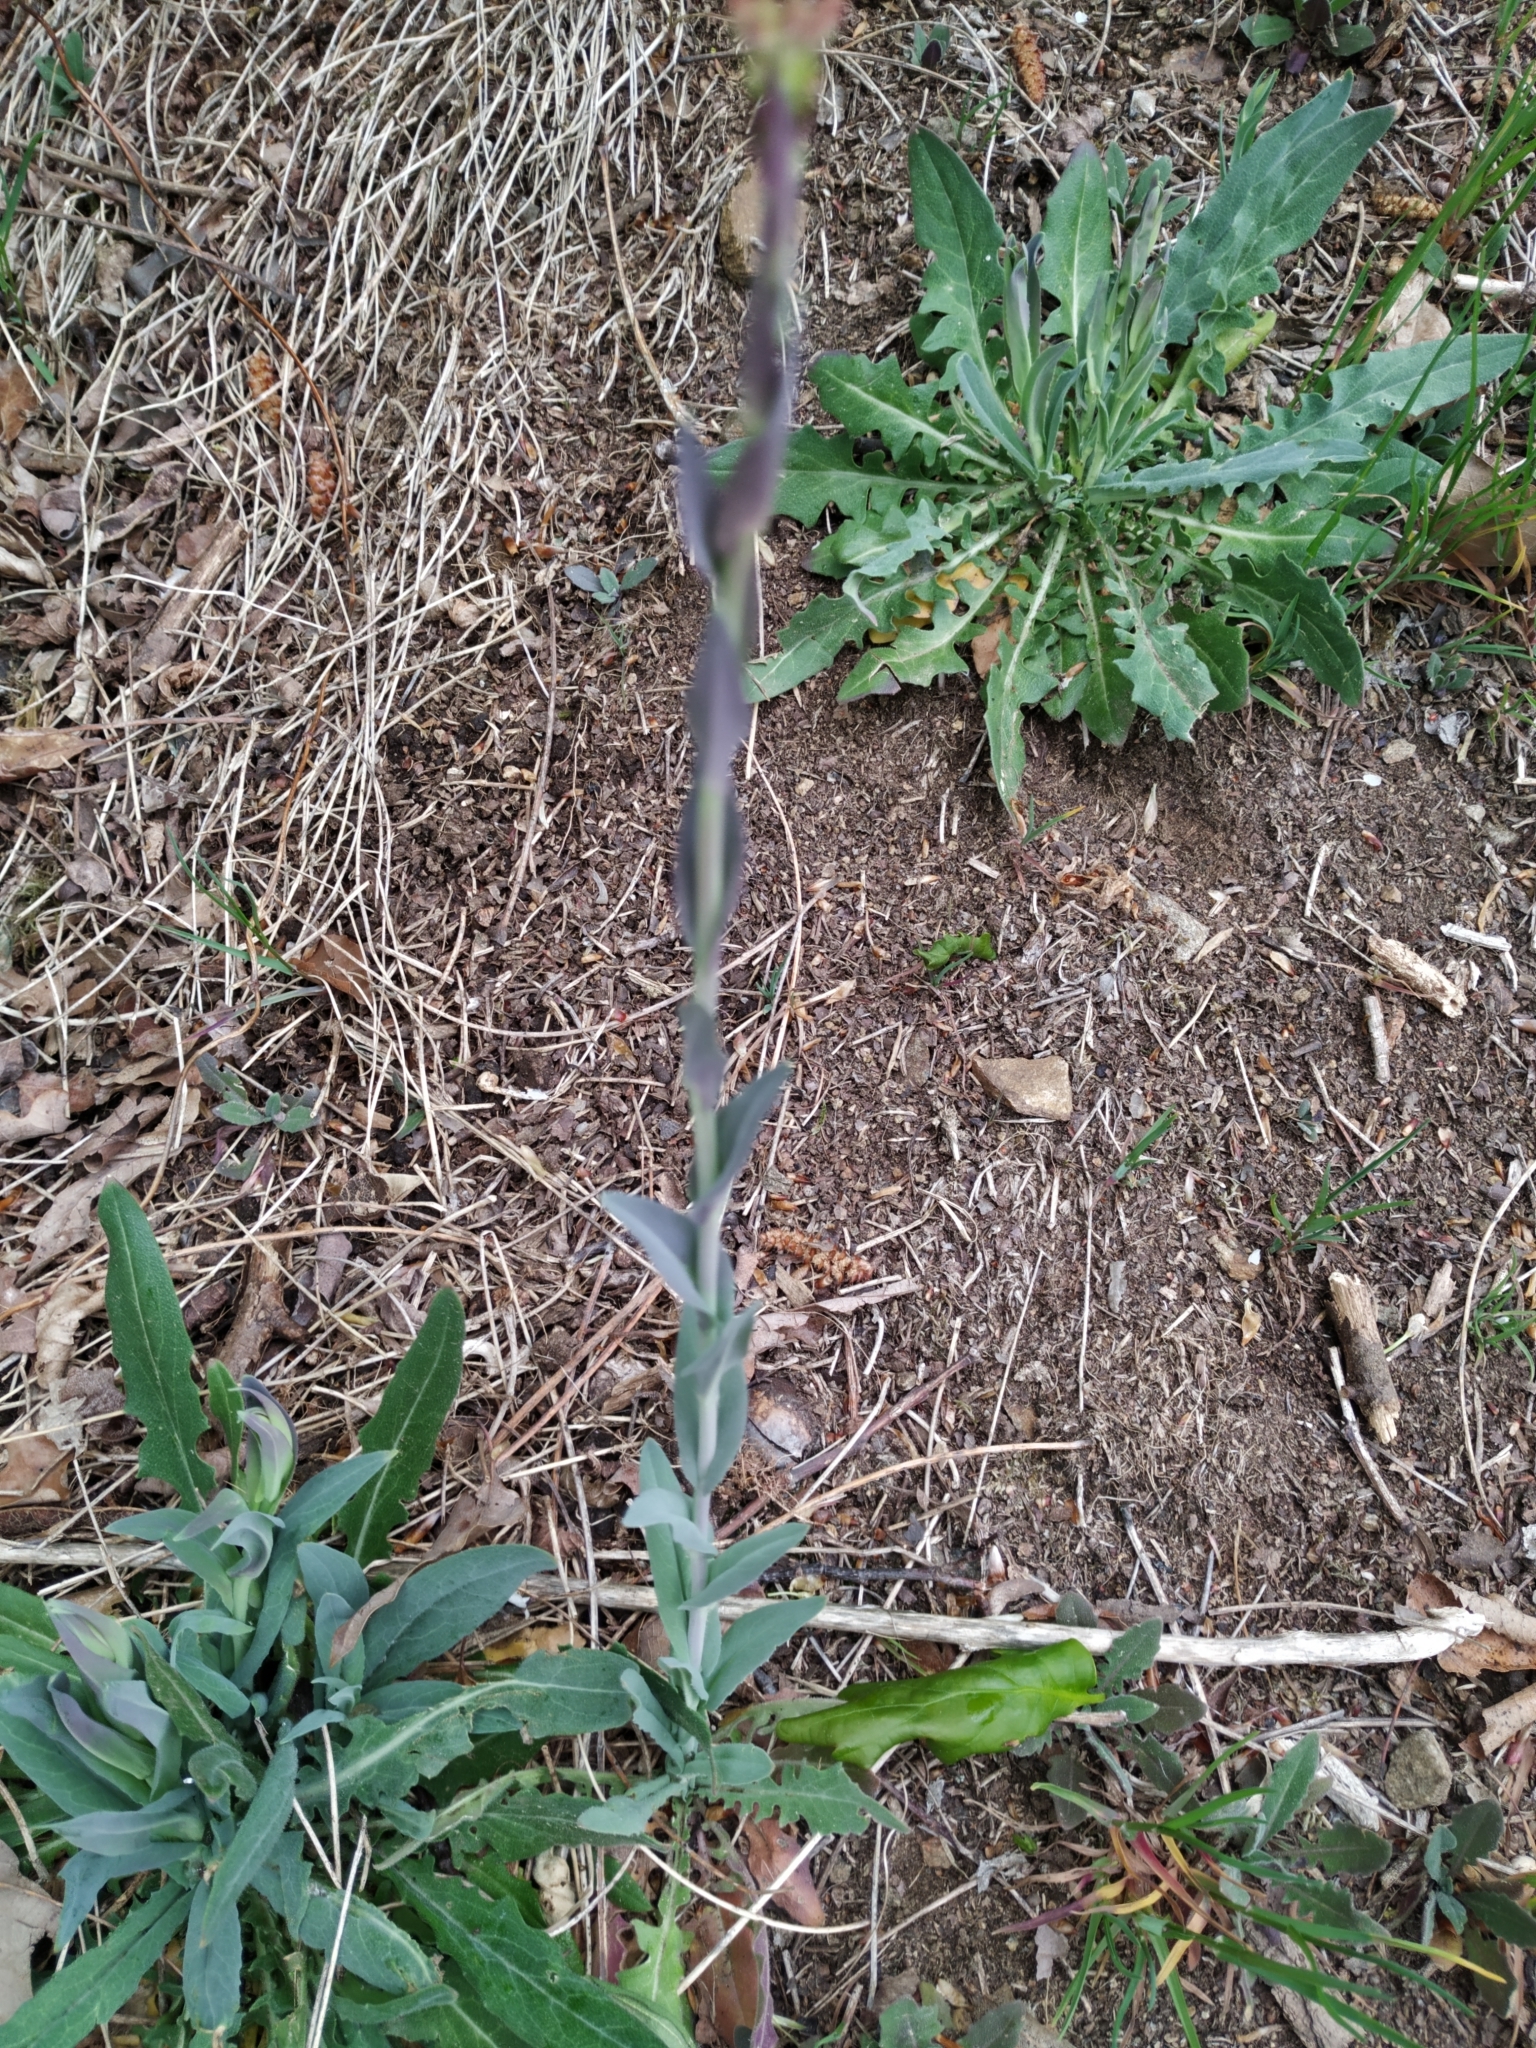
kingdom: Plantae
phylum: Tracheophyta
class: Magnoliopsida
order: Brassicales
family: Brassicaceae
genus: Turritis
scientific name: Turritis glabra
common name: Tower rockcress
